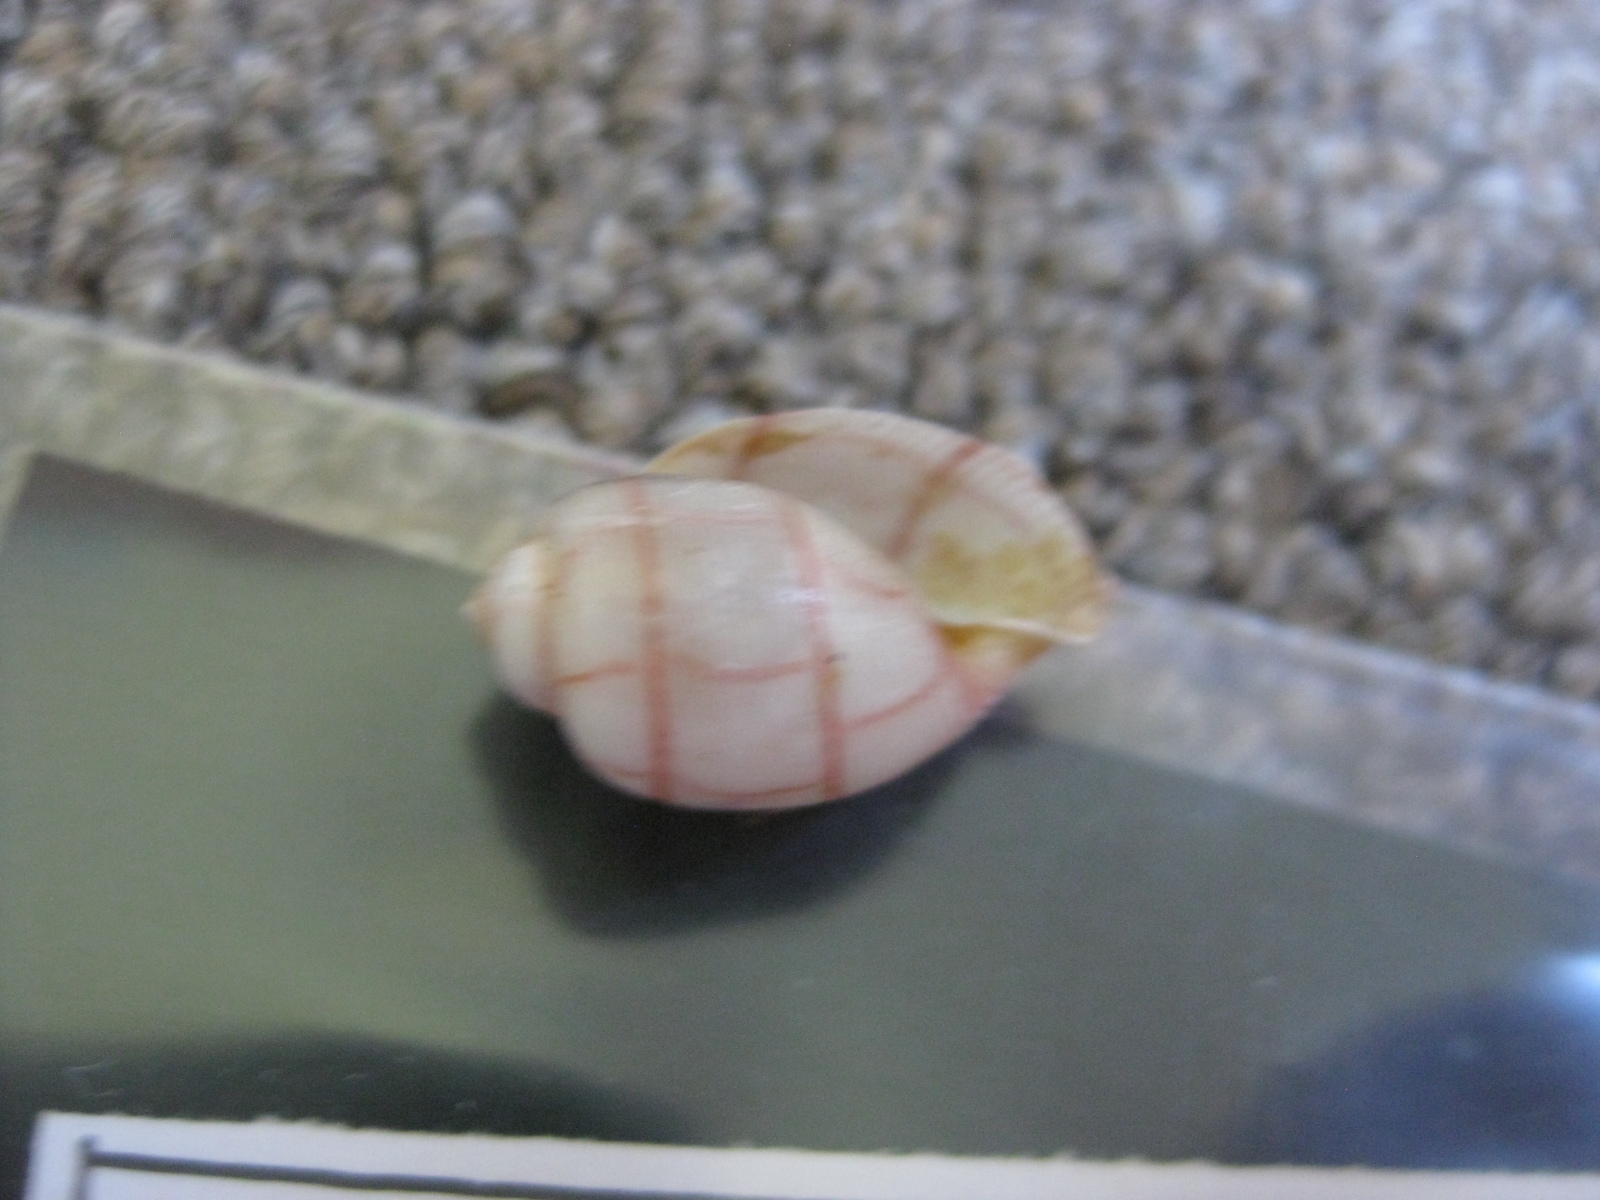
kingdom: Animalia
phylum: Mollusca
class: Gastropoda
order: Cephalaspidea
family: Aplustridae
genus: Bullina
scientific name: Bullina lineata
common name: Lined bubble snail
